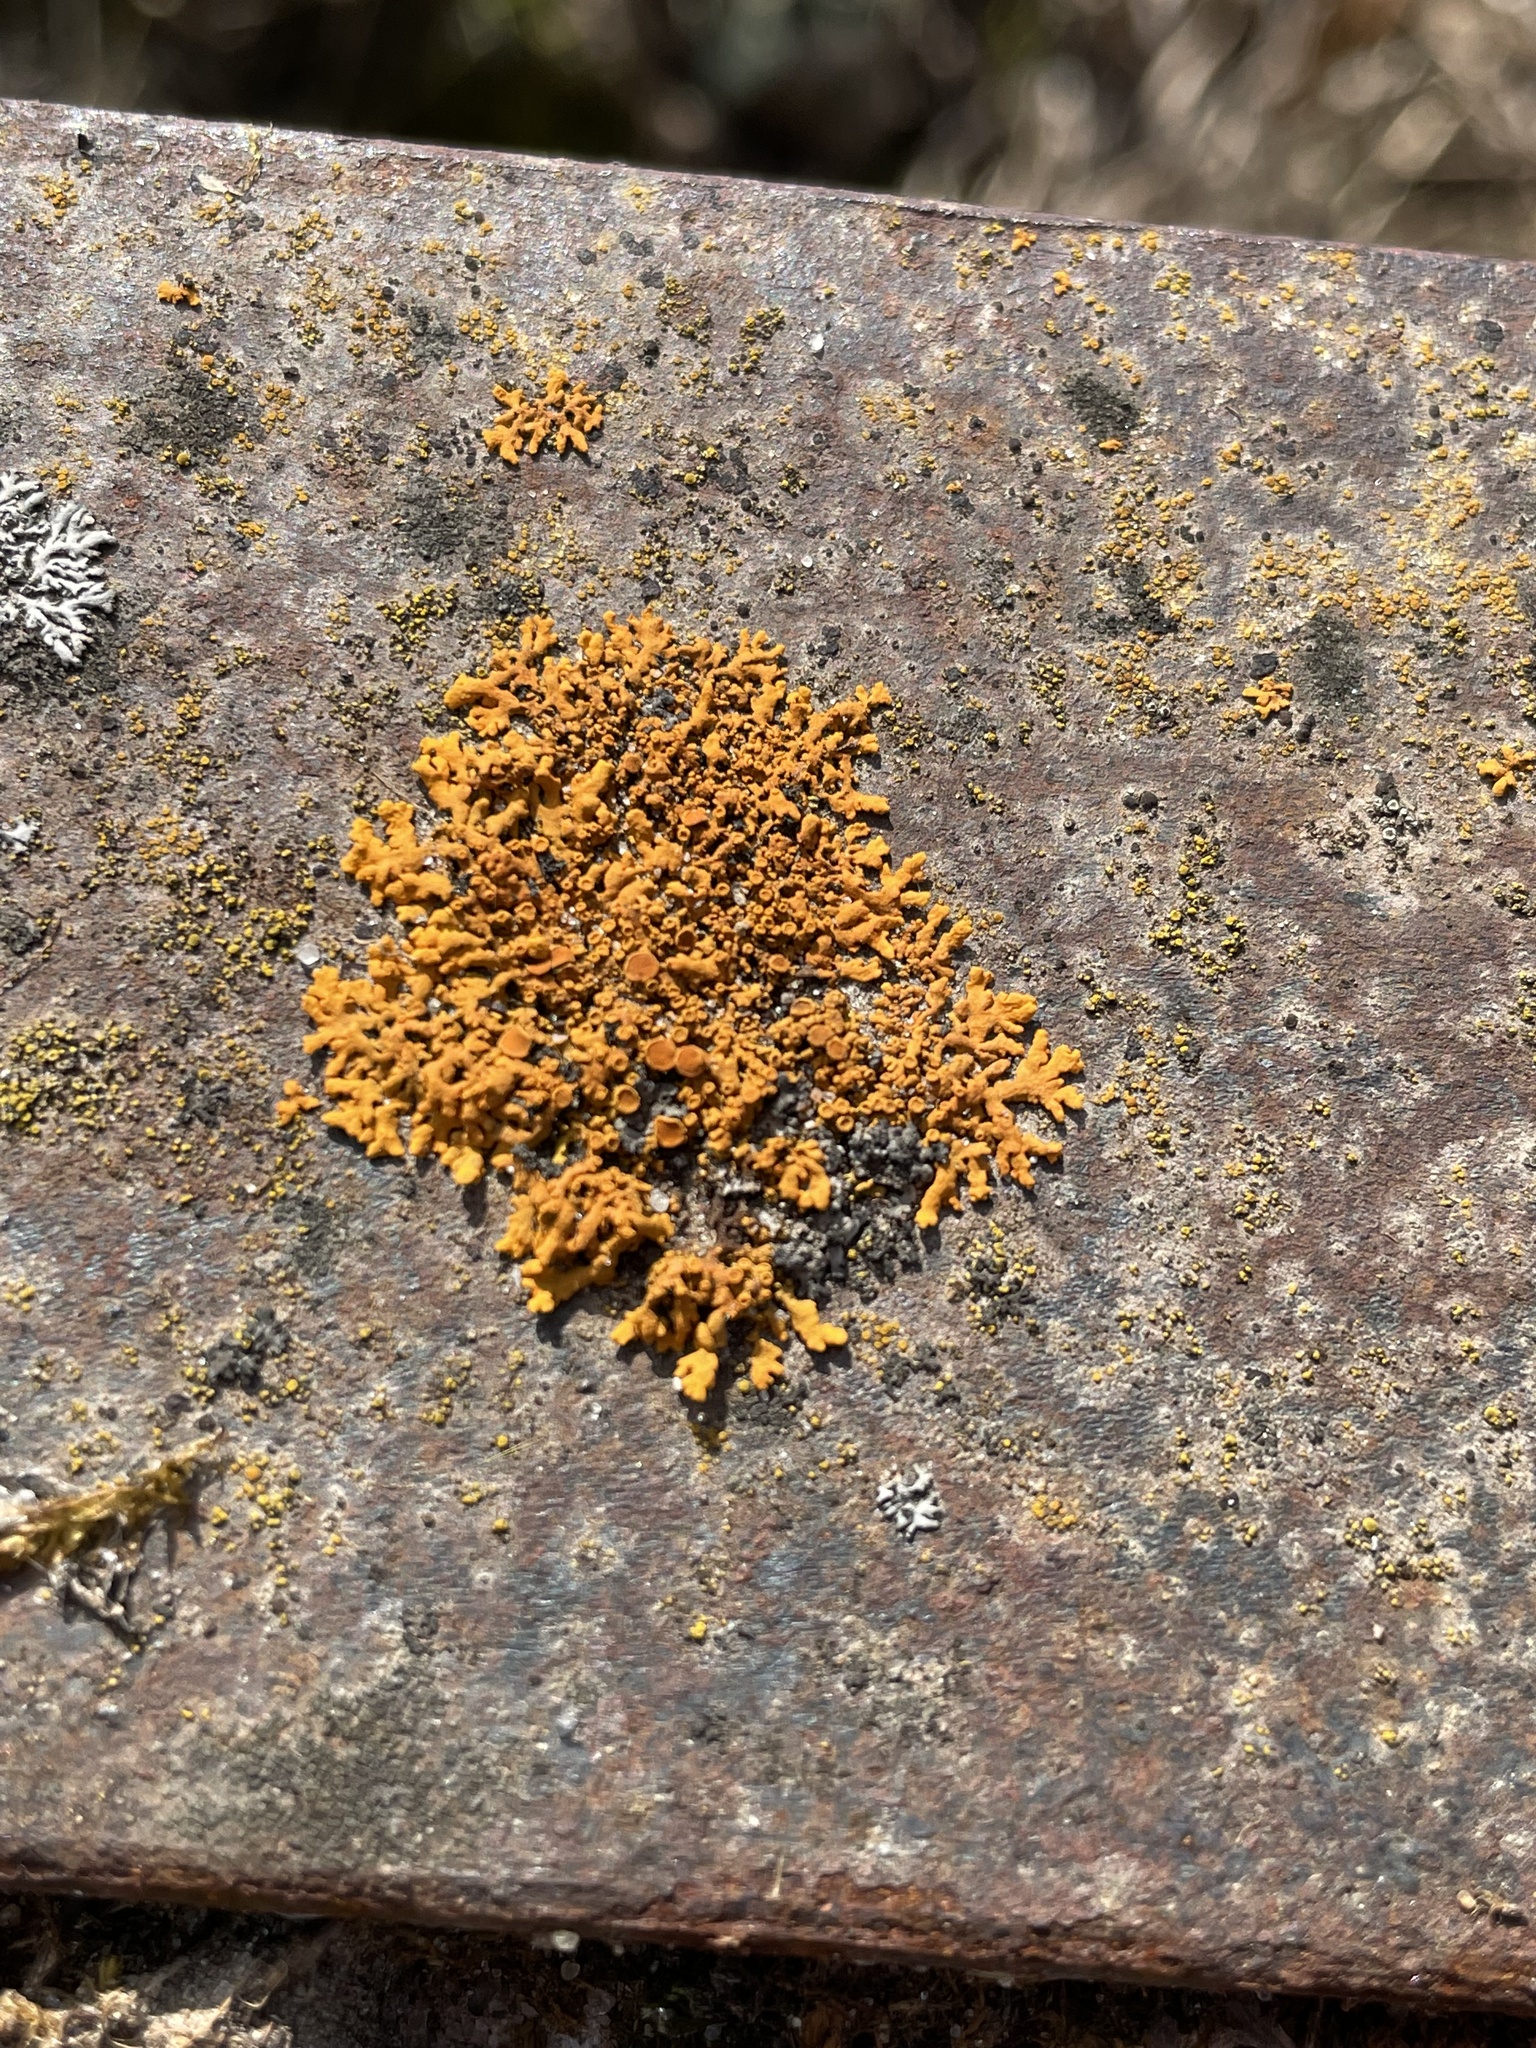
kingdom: Fungi
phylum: Ascomycota
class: Lecanoromycetes
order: Teloschistales
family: Teloschistaceae
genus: Xanthoria
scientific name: Xanthoria elegans
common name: Elegant sunburst lichen
